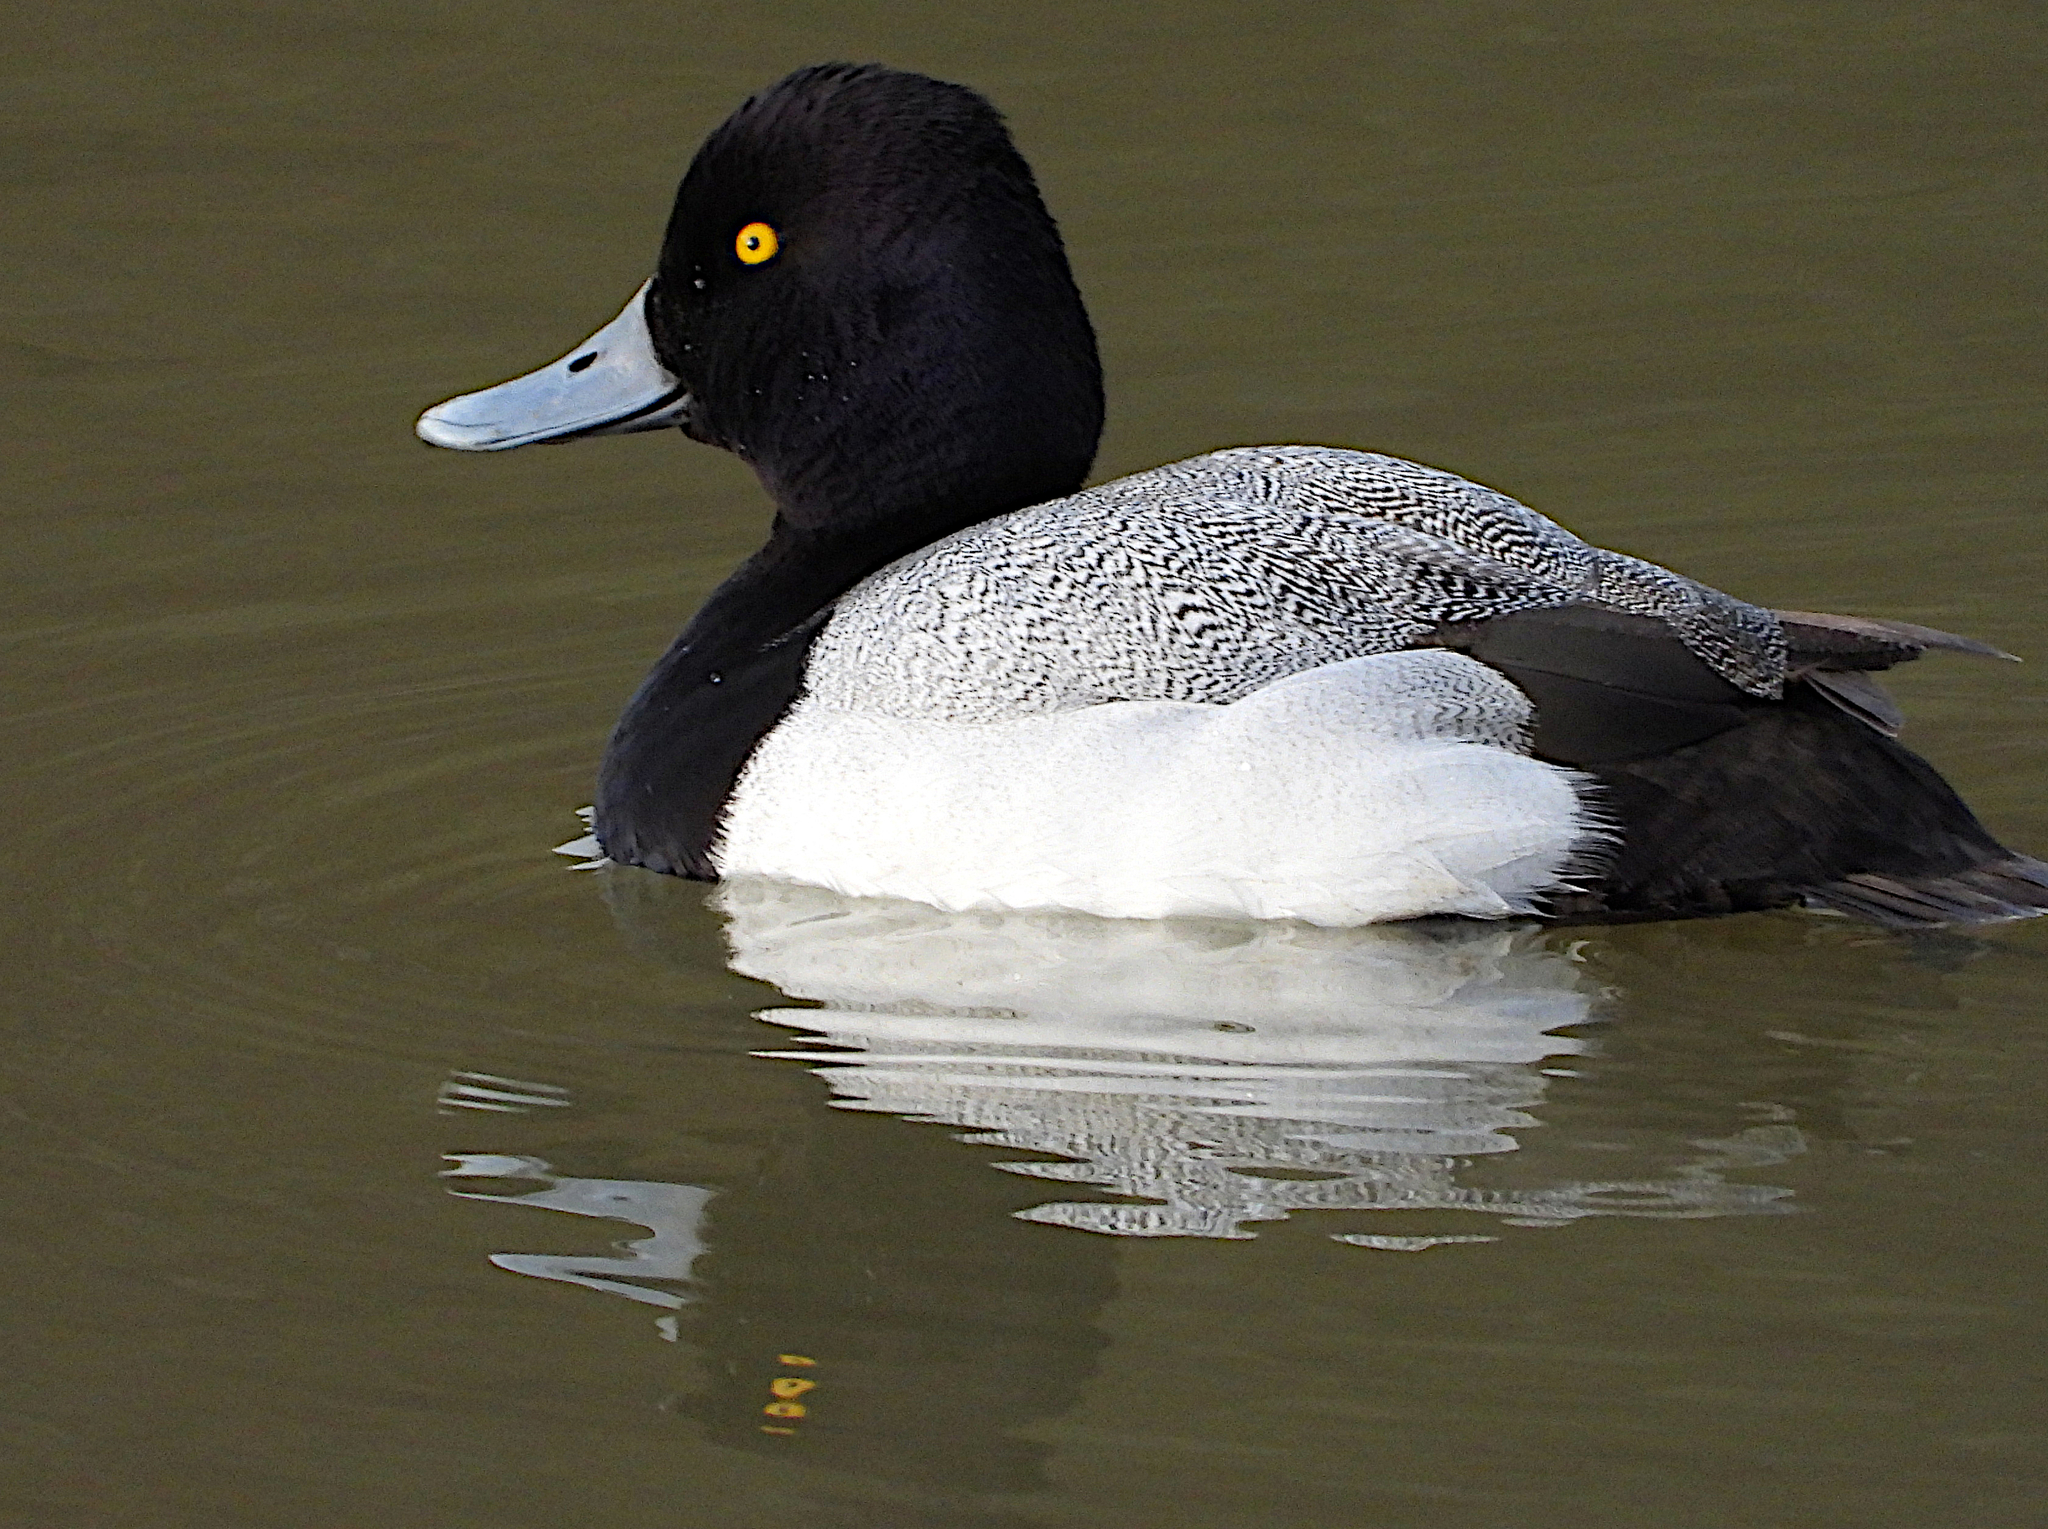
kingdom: Animalia
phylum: Chordata
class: Aves
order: Anseriformes
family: Anatidae
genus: Aythya
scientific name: Aythya affinis
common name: Lesser scaup
